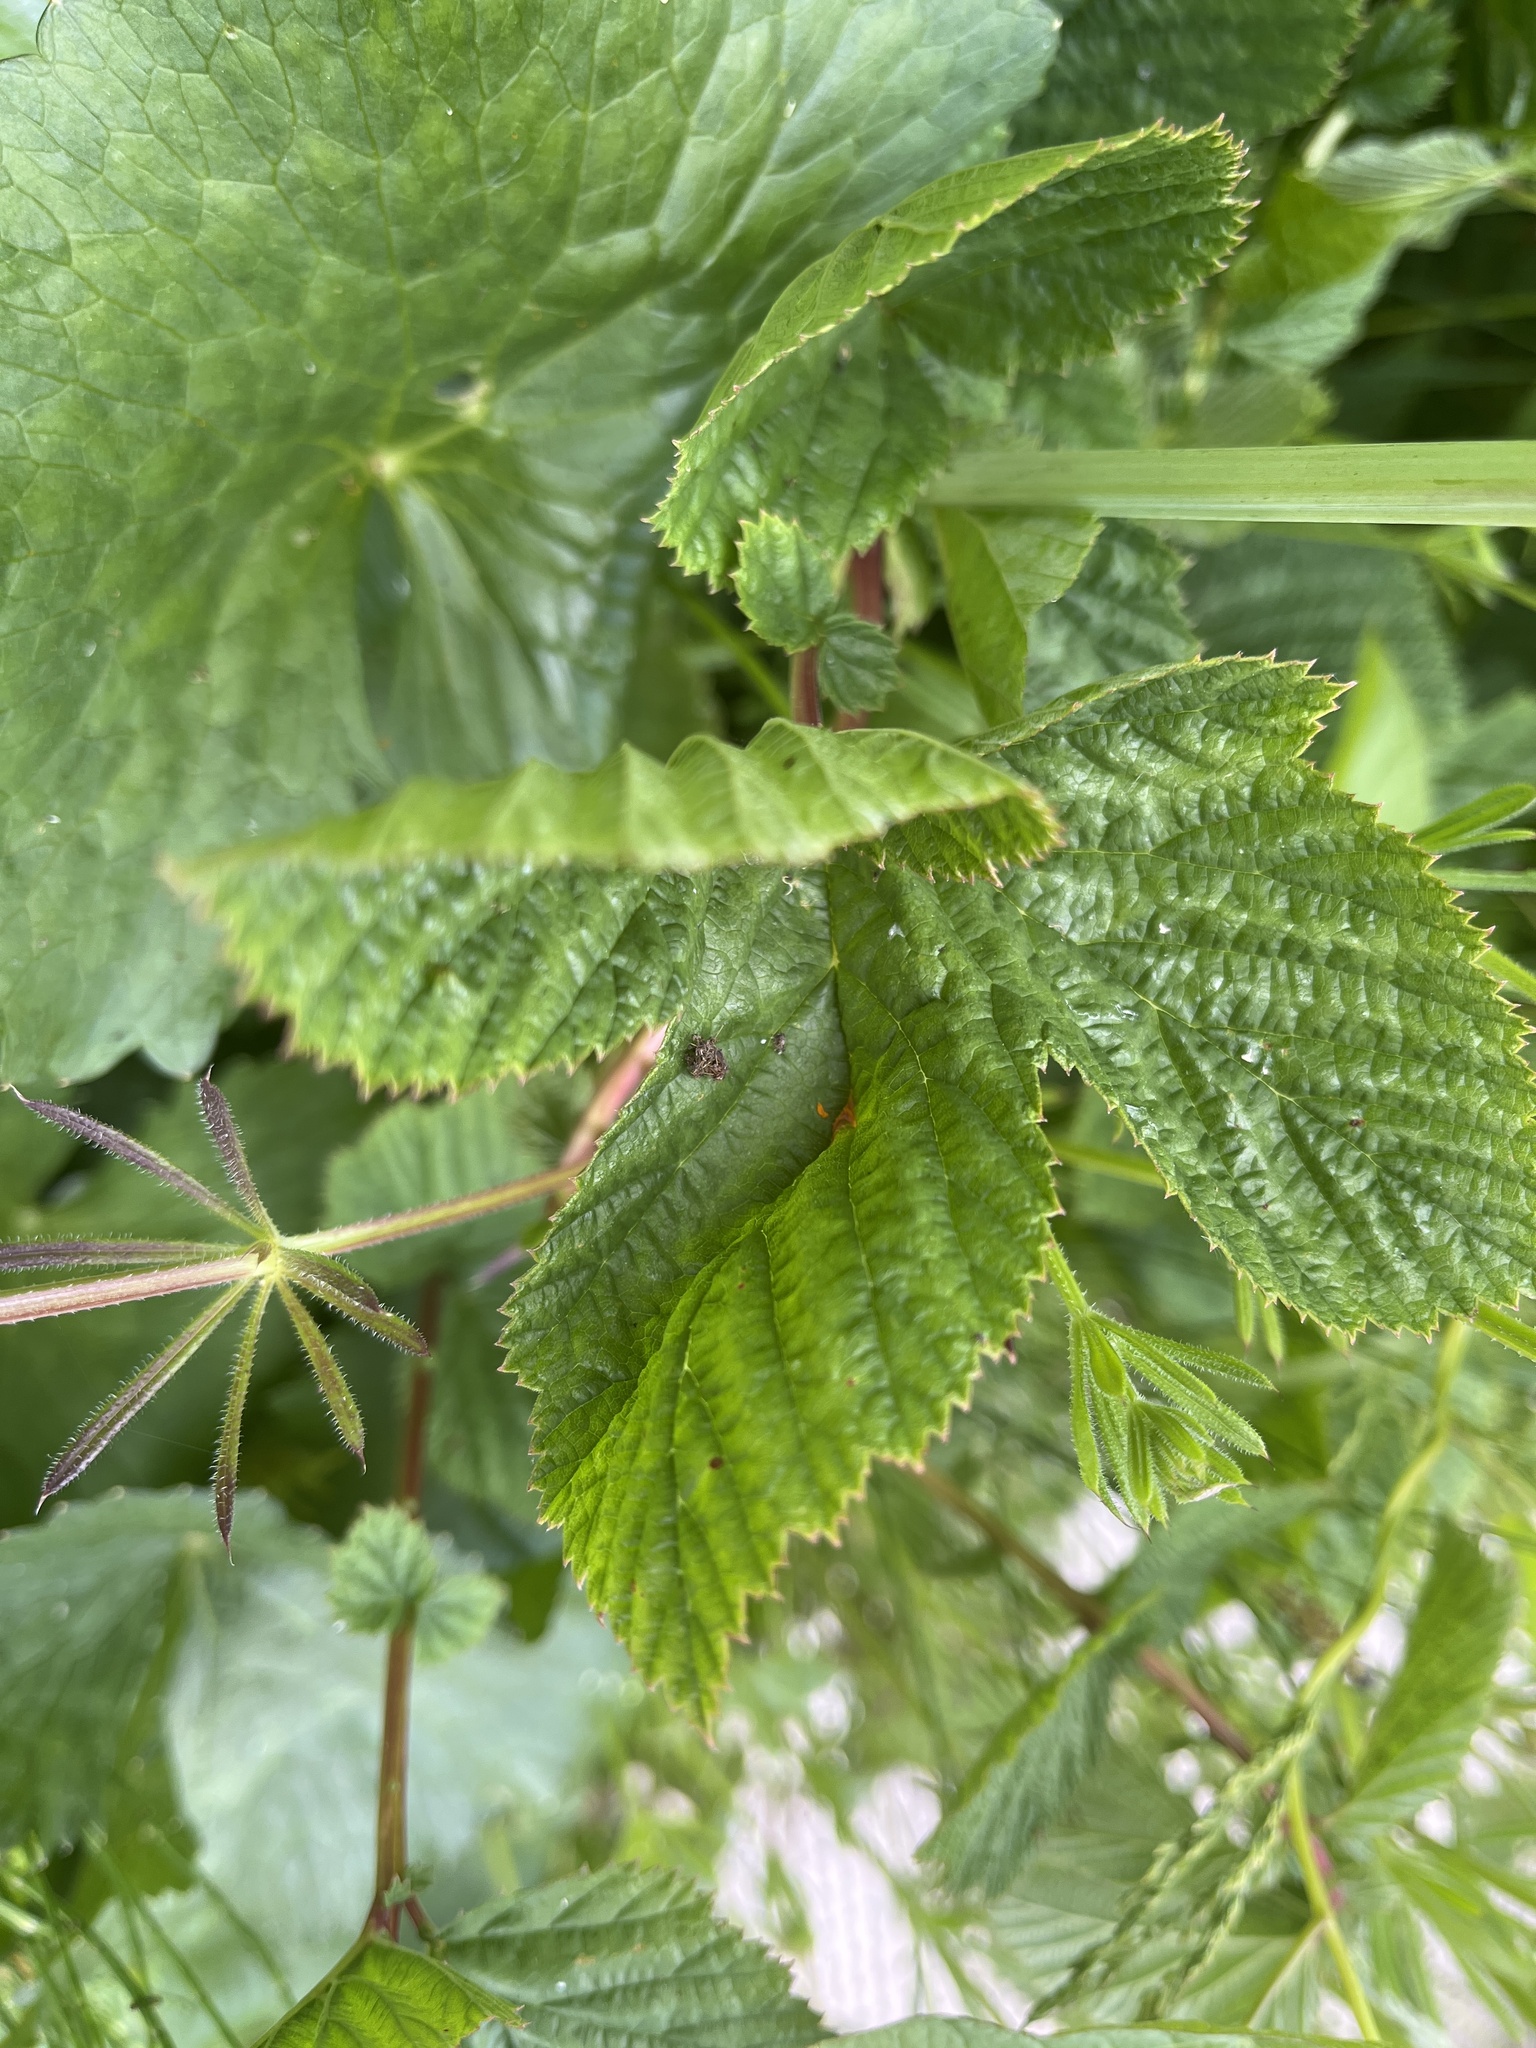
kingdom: Fungi
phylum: Basidiomycota
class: Pucciniomycetes
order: Pucciniales
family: Raveneliaceae
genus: Triphragmium
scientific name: Triphragmium ulmariae
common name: Meadowsweet rust
